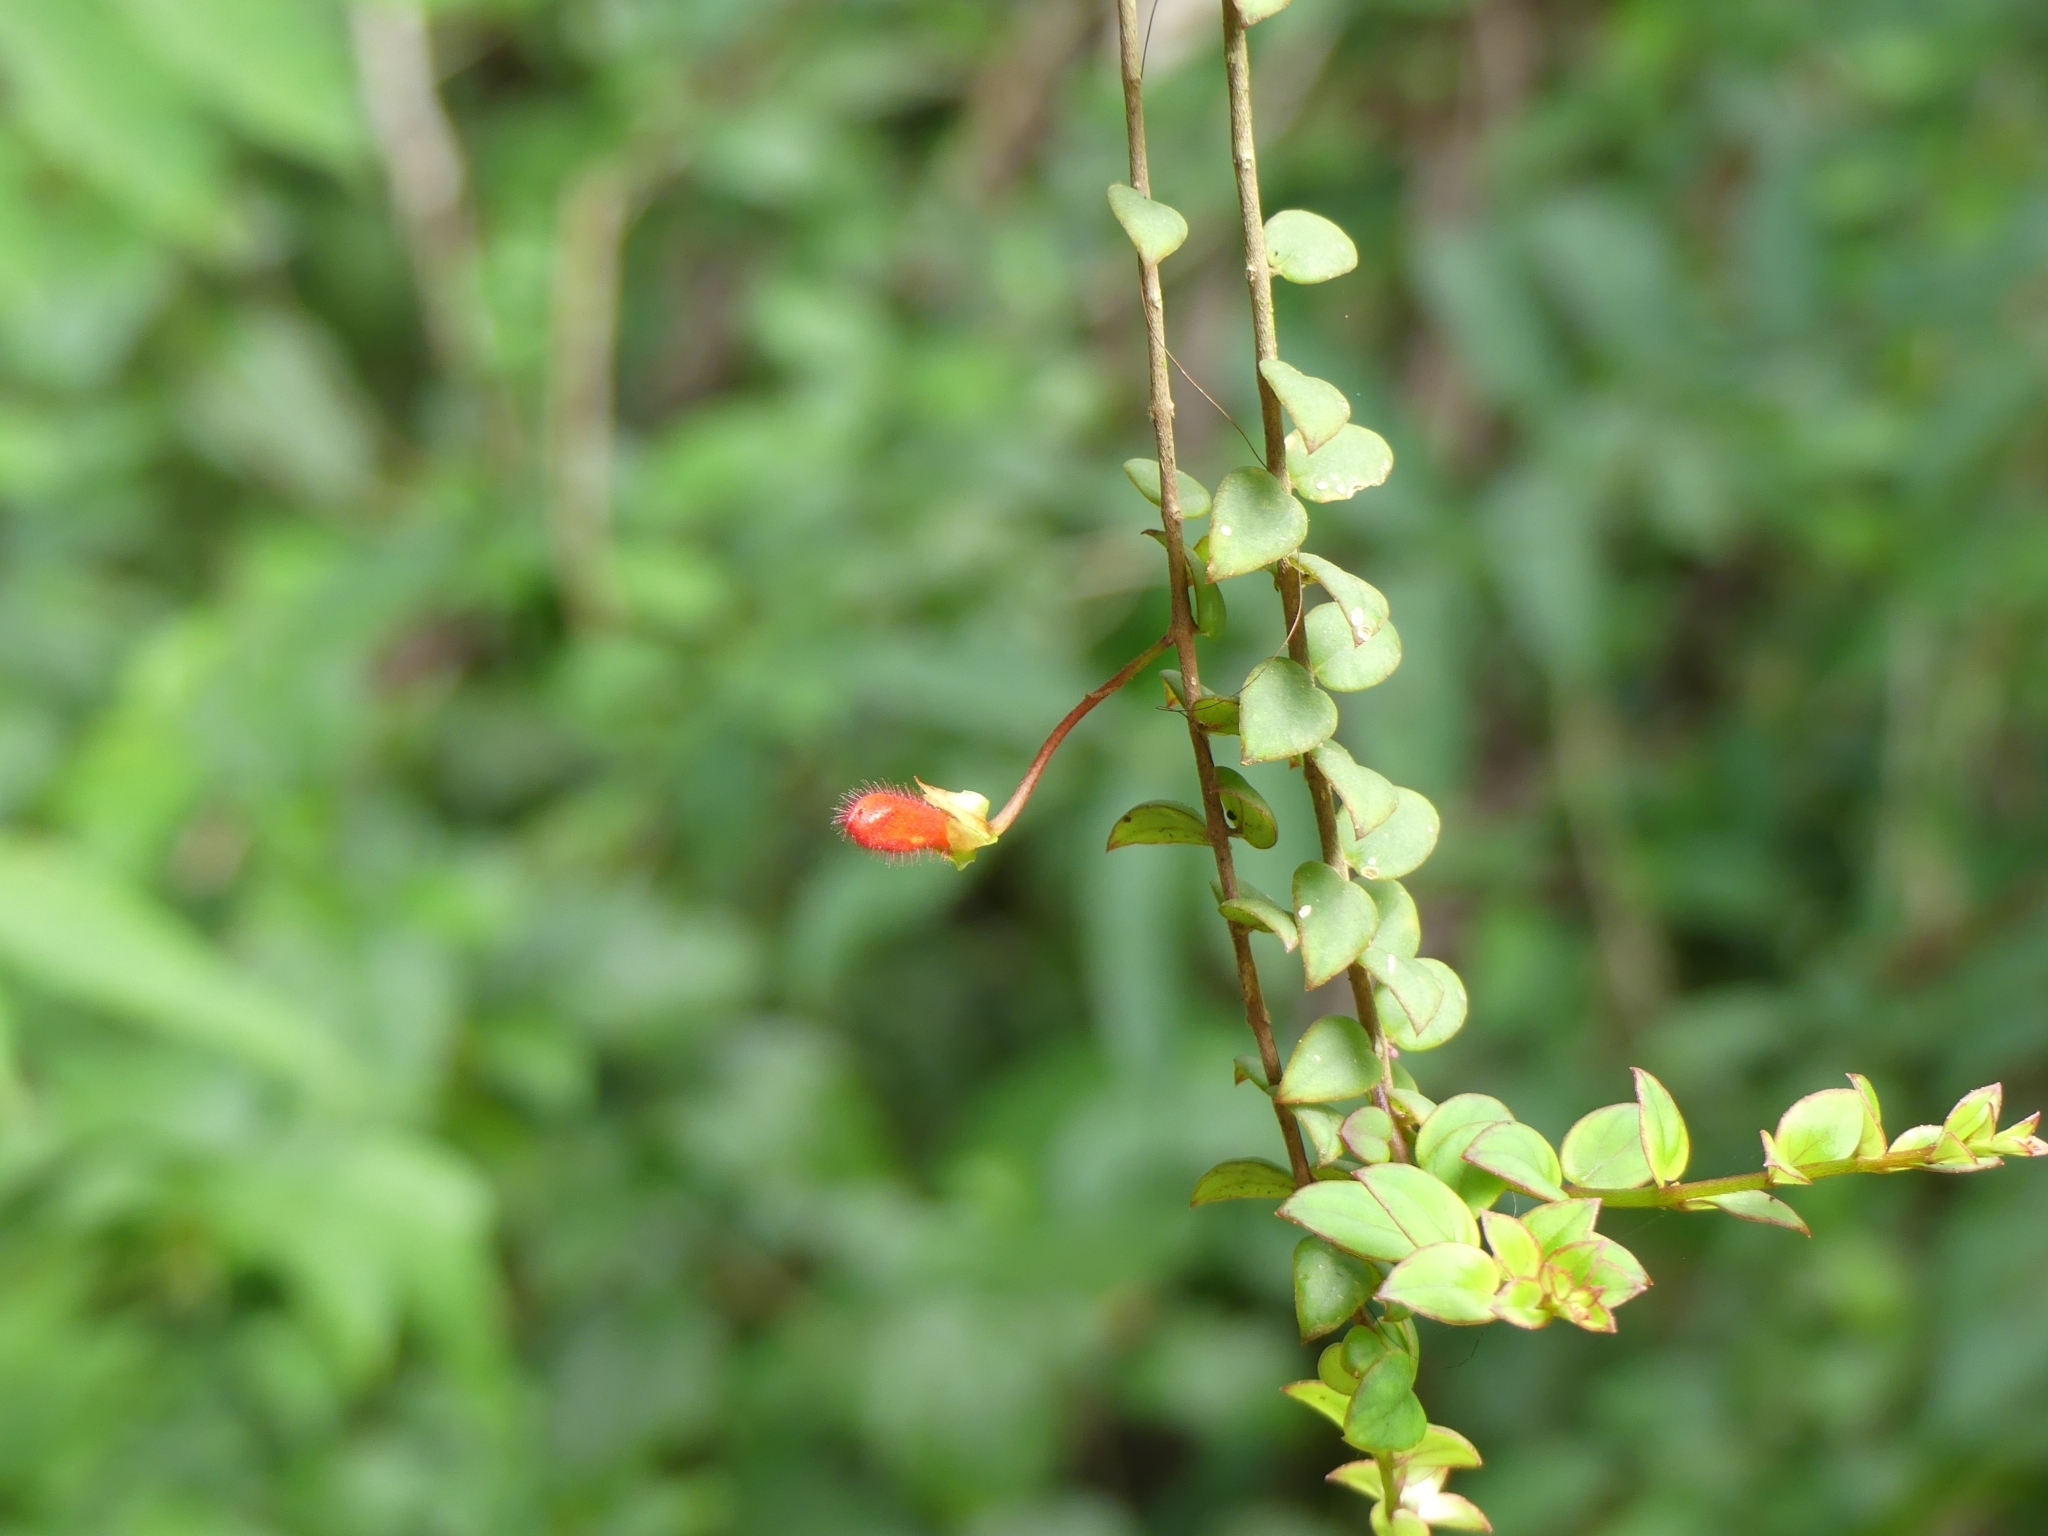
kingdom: Plantae
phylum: Tracheophyta
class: Magnoliopsida
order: Lamiales
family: Gesneriaceae
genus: Columnea
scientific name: Columnea oerstediana
